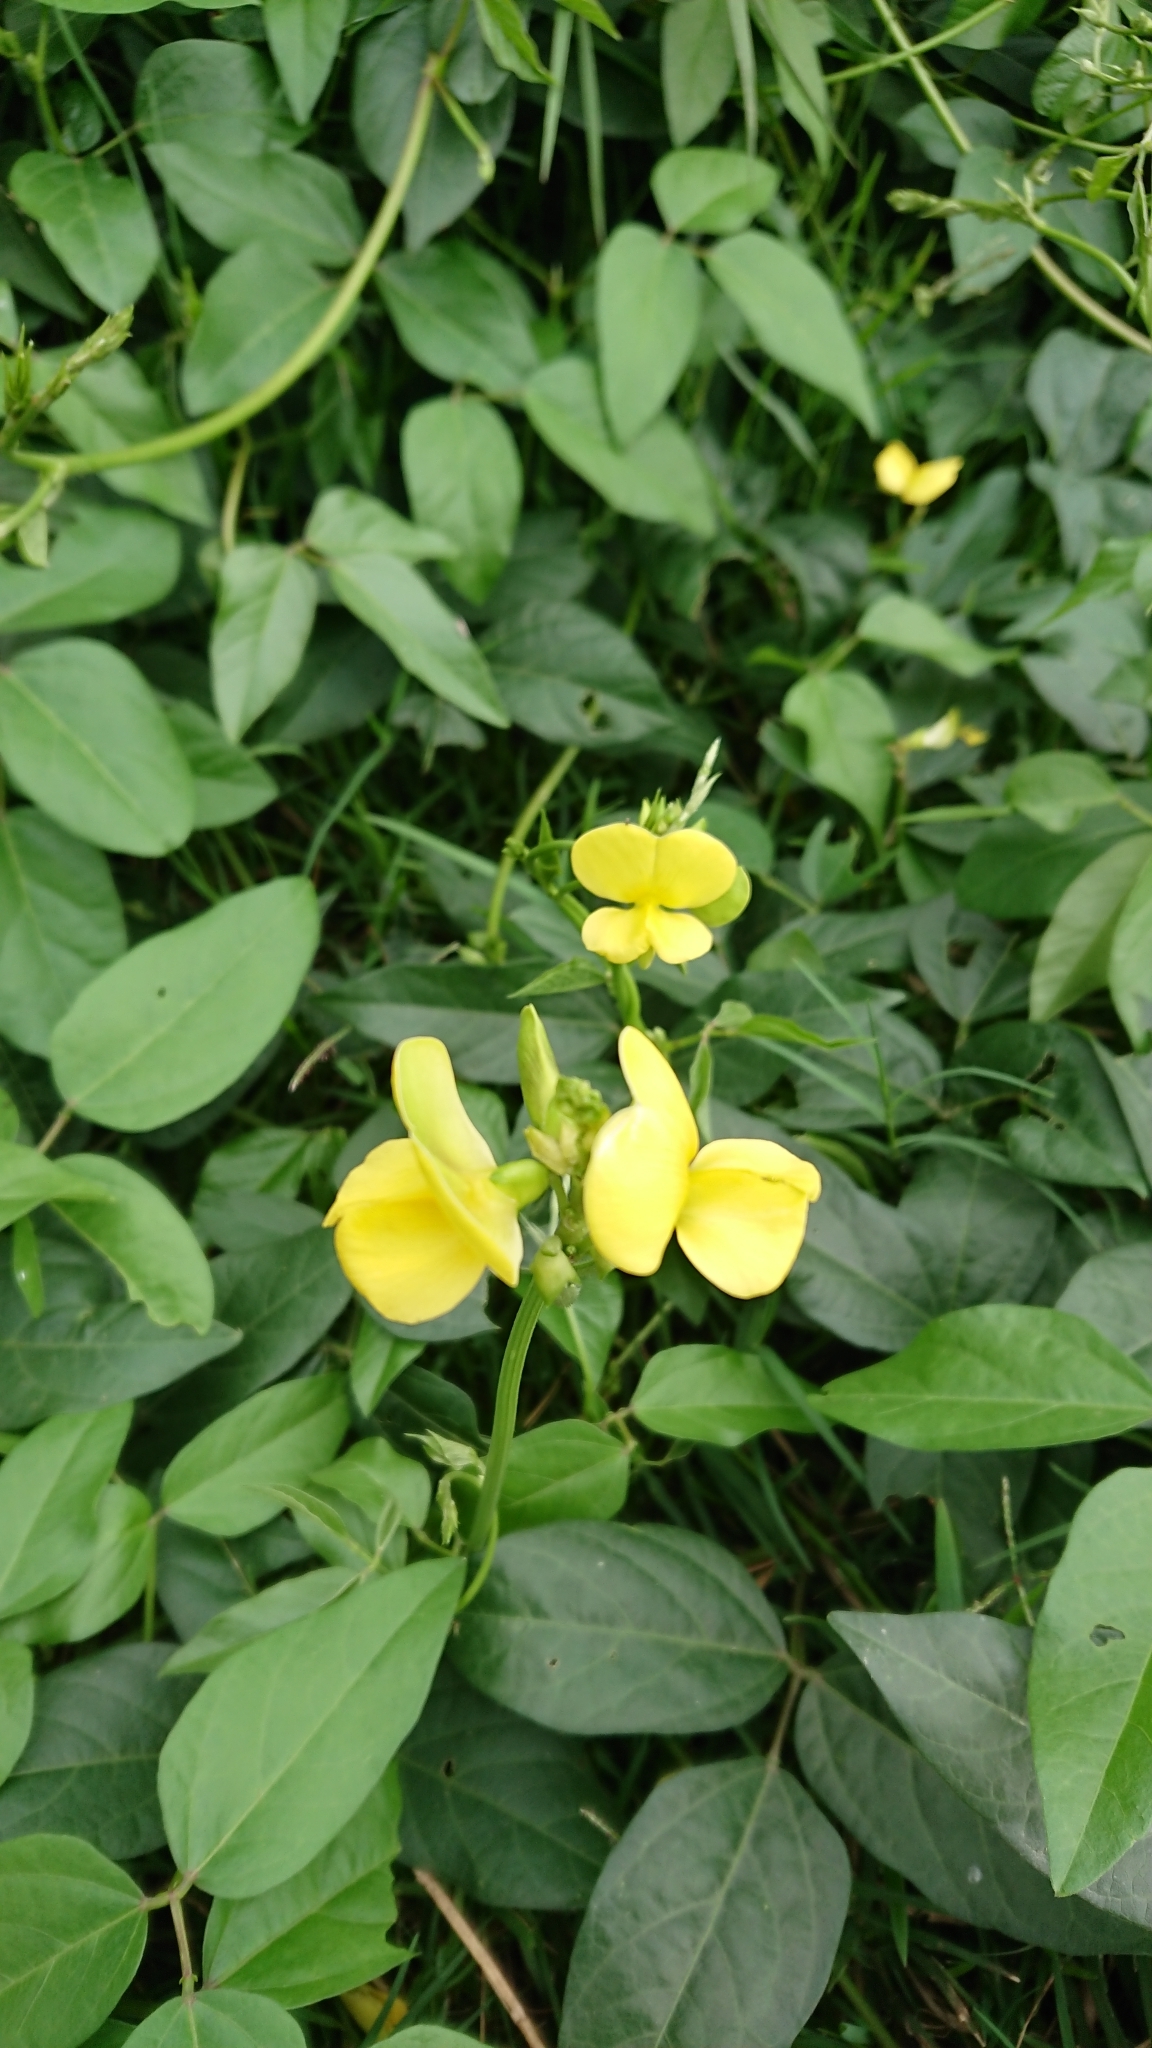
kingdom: Plantae
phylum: Tracheophyta
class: Magnoliopsida
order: Fabales
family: Fabaceae
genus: Vigna
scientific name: Vigna luteola
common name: Hairypod cowpea
